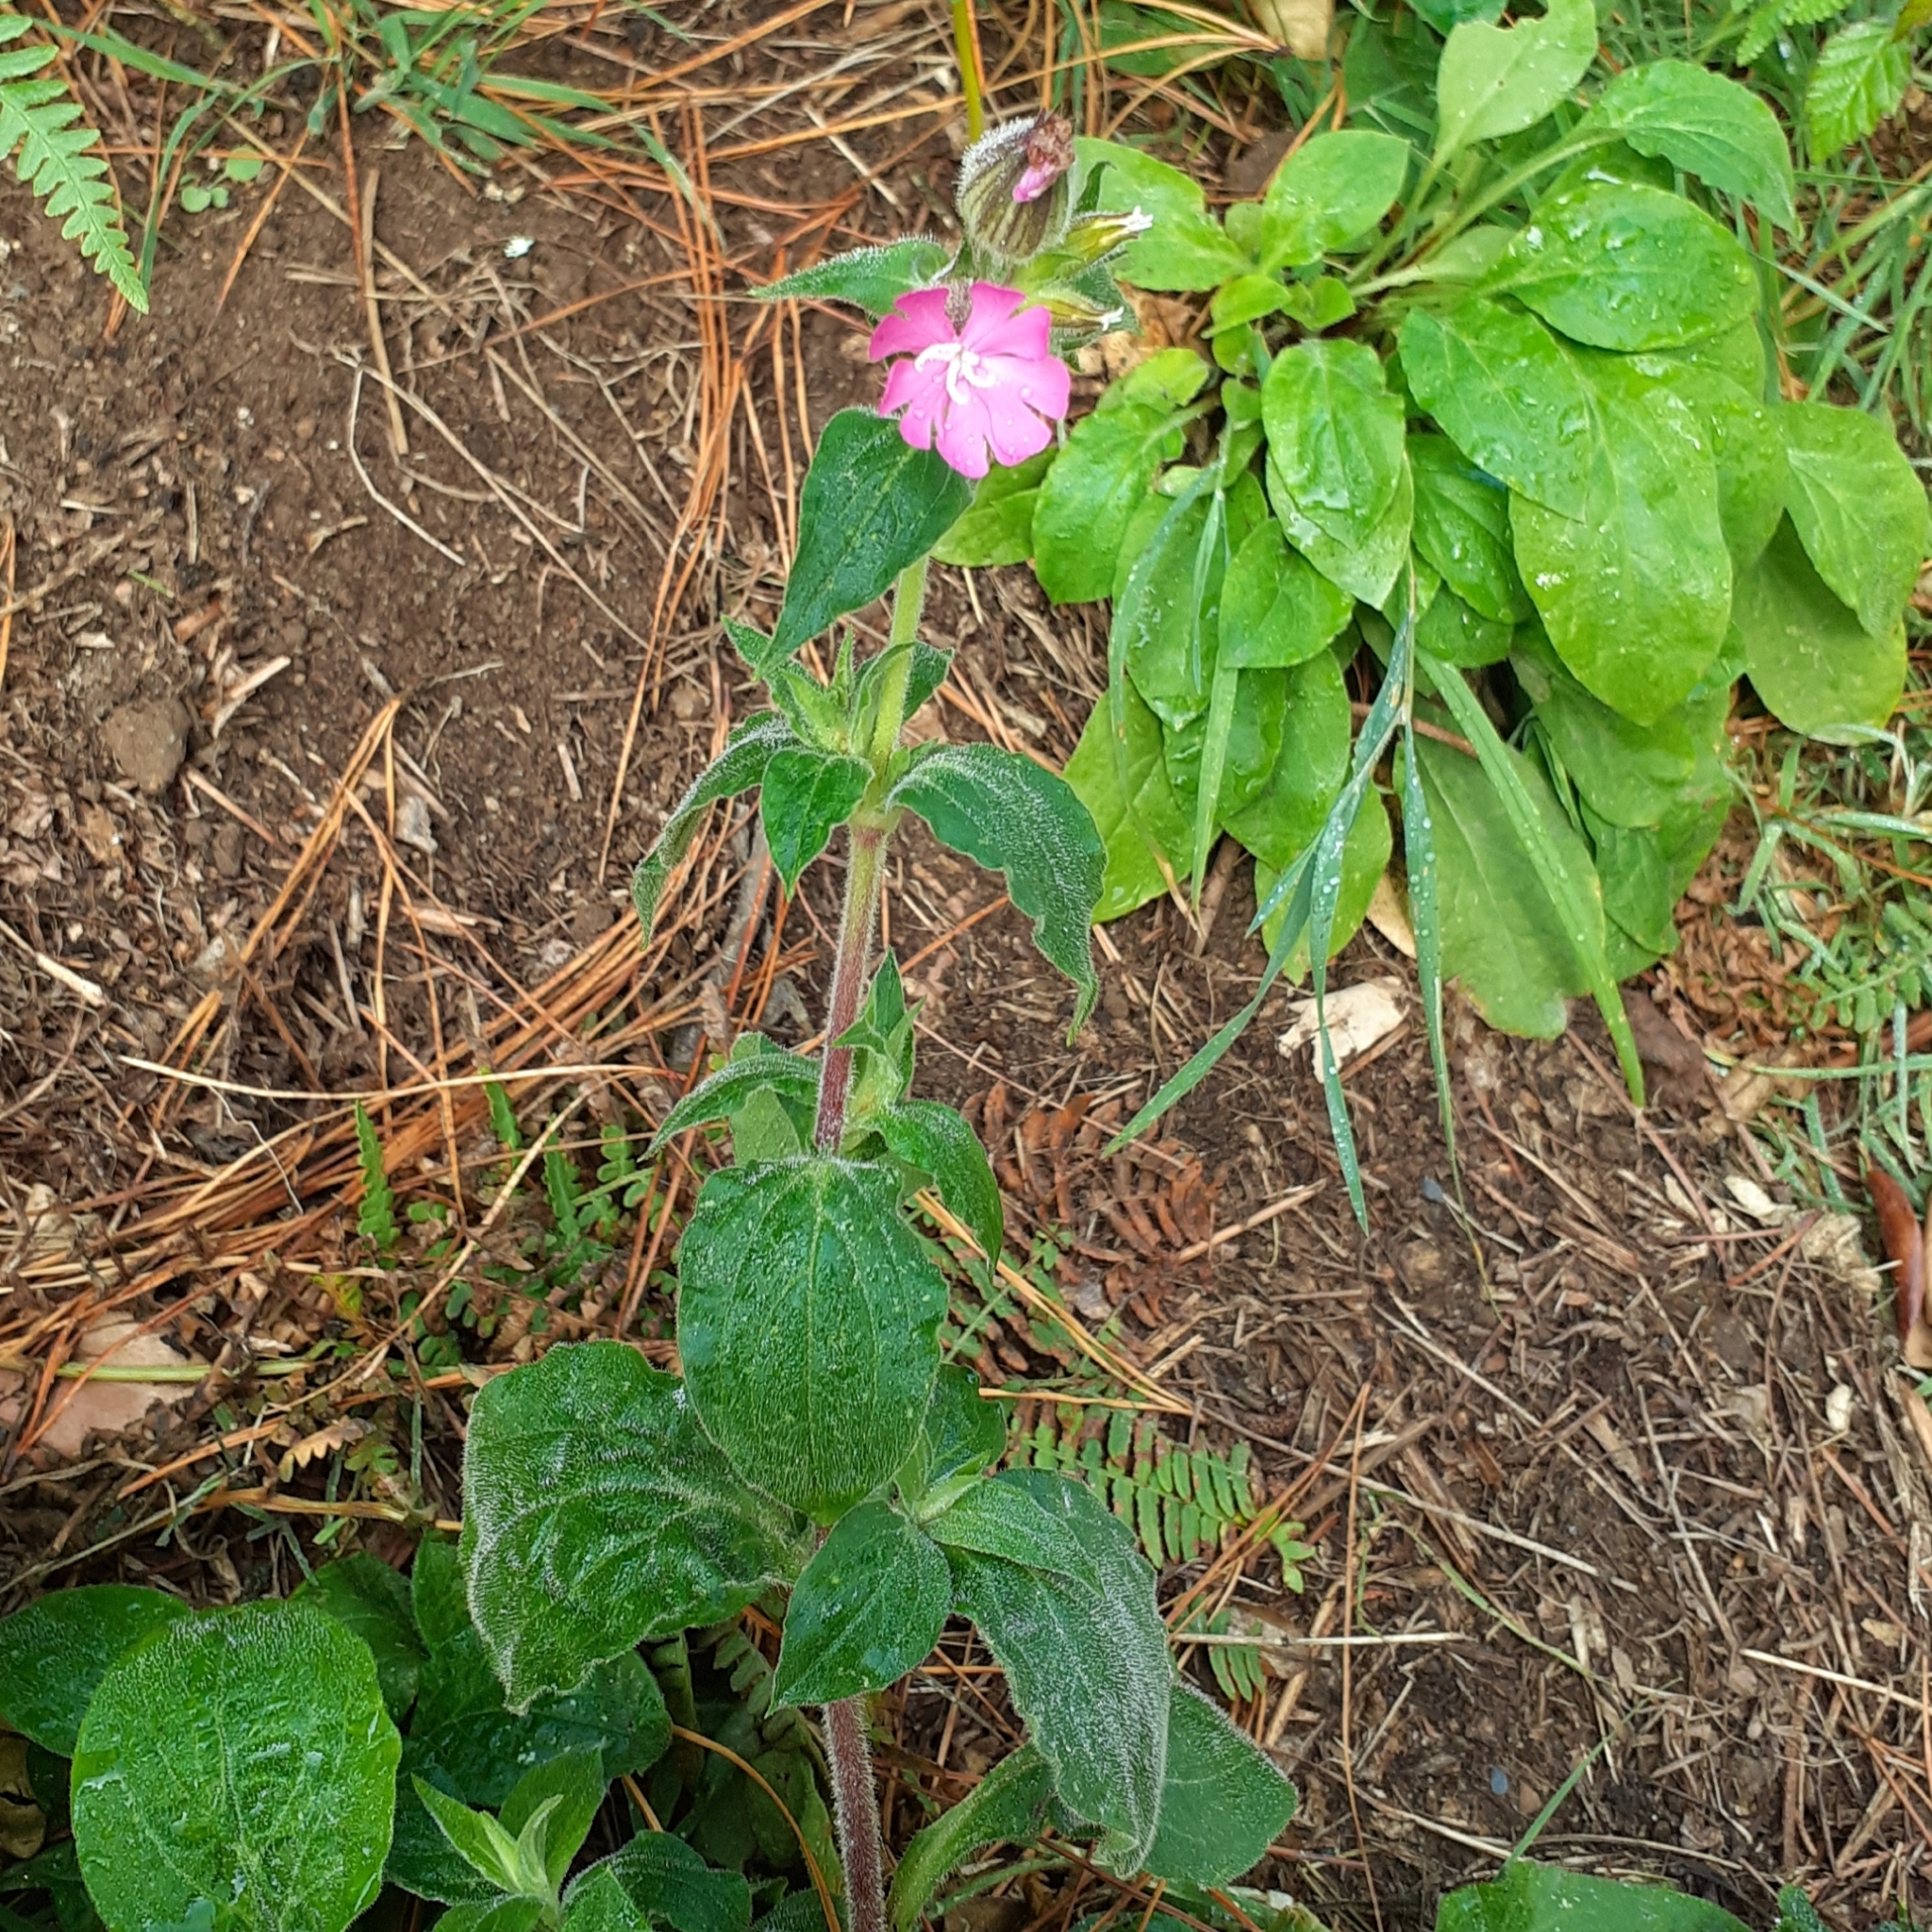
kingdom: Plantae
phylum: Tracheophyta
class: Magnoliopsida
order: Caryophyllales
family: Caryophyllaceae
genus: Silene
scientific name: Silene dioica
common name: Red campion
